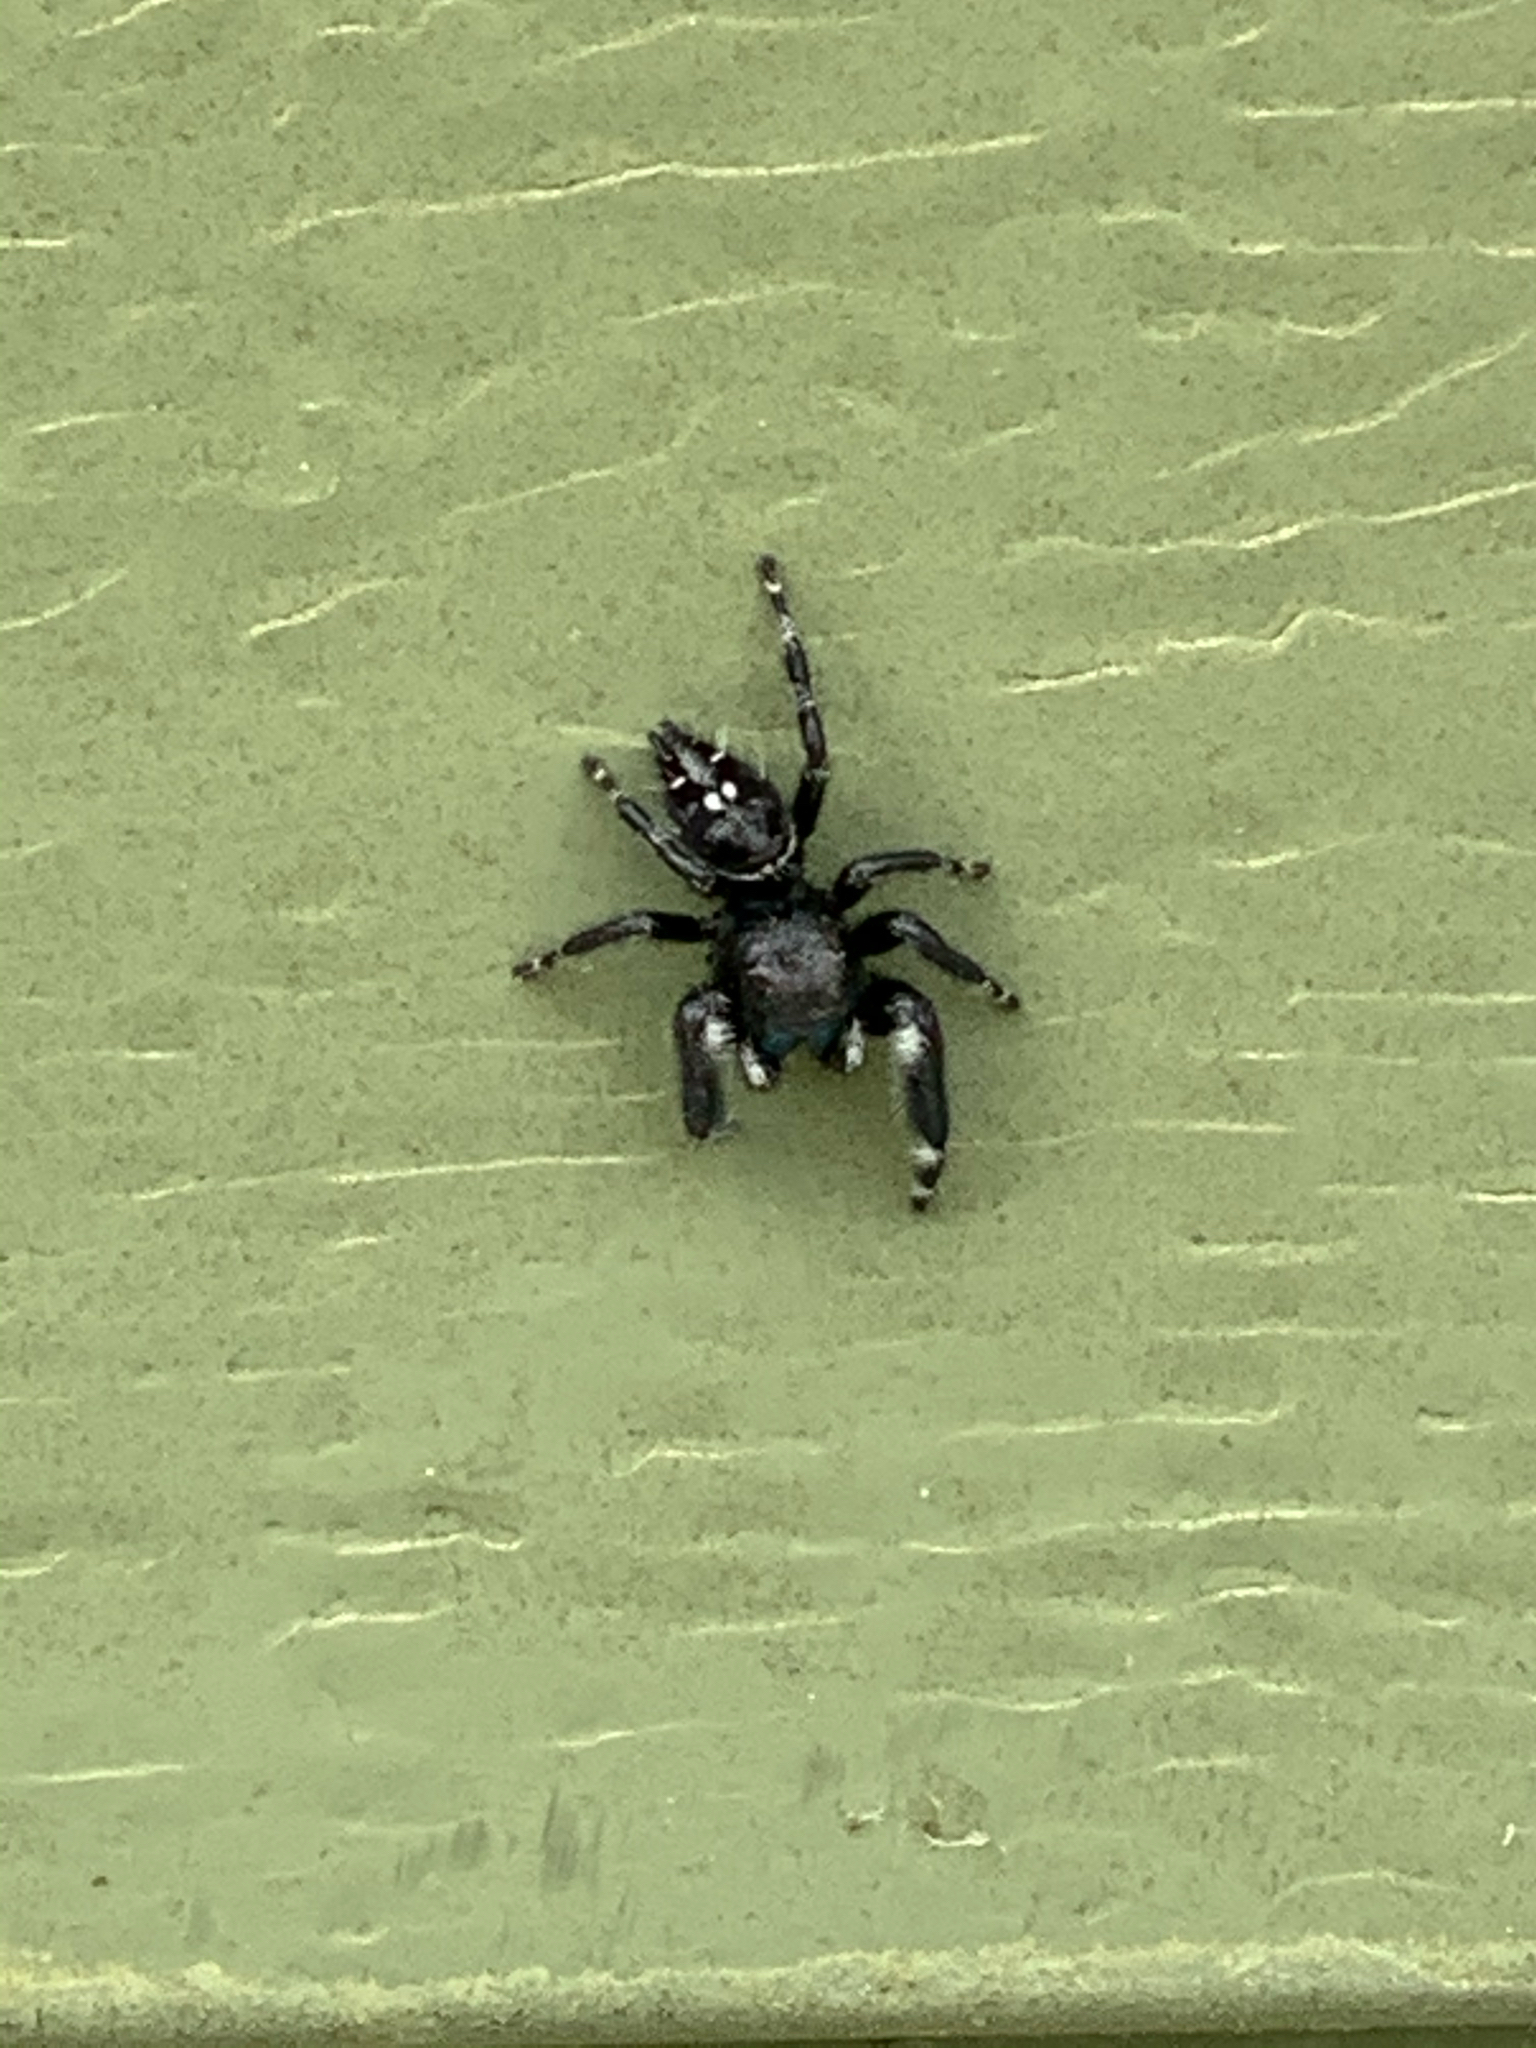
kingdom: Animalia
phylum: Arthropoda
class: Arachnida
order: Araneae
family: Salticidae
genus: Phidippus
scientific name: Phidippus audax
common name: Bold jumper
